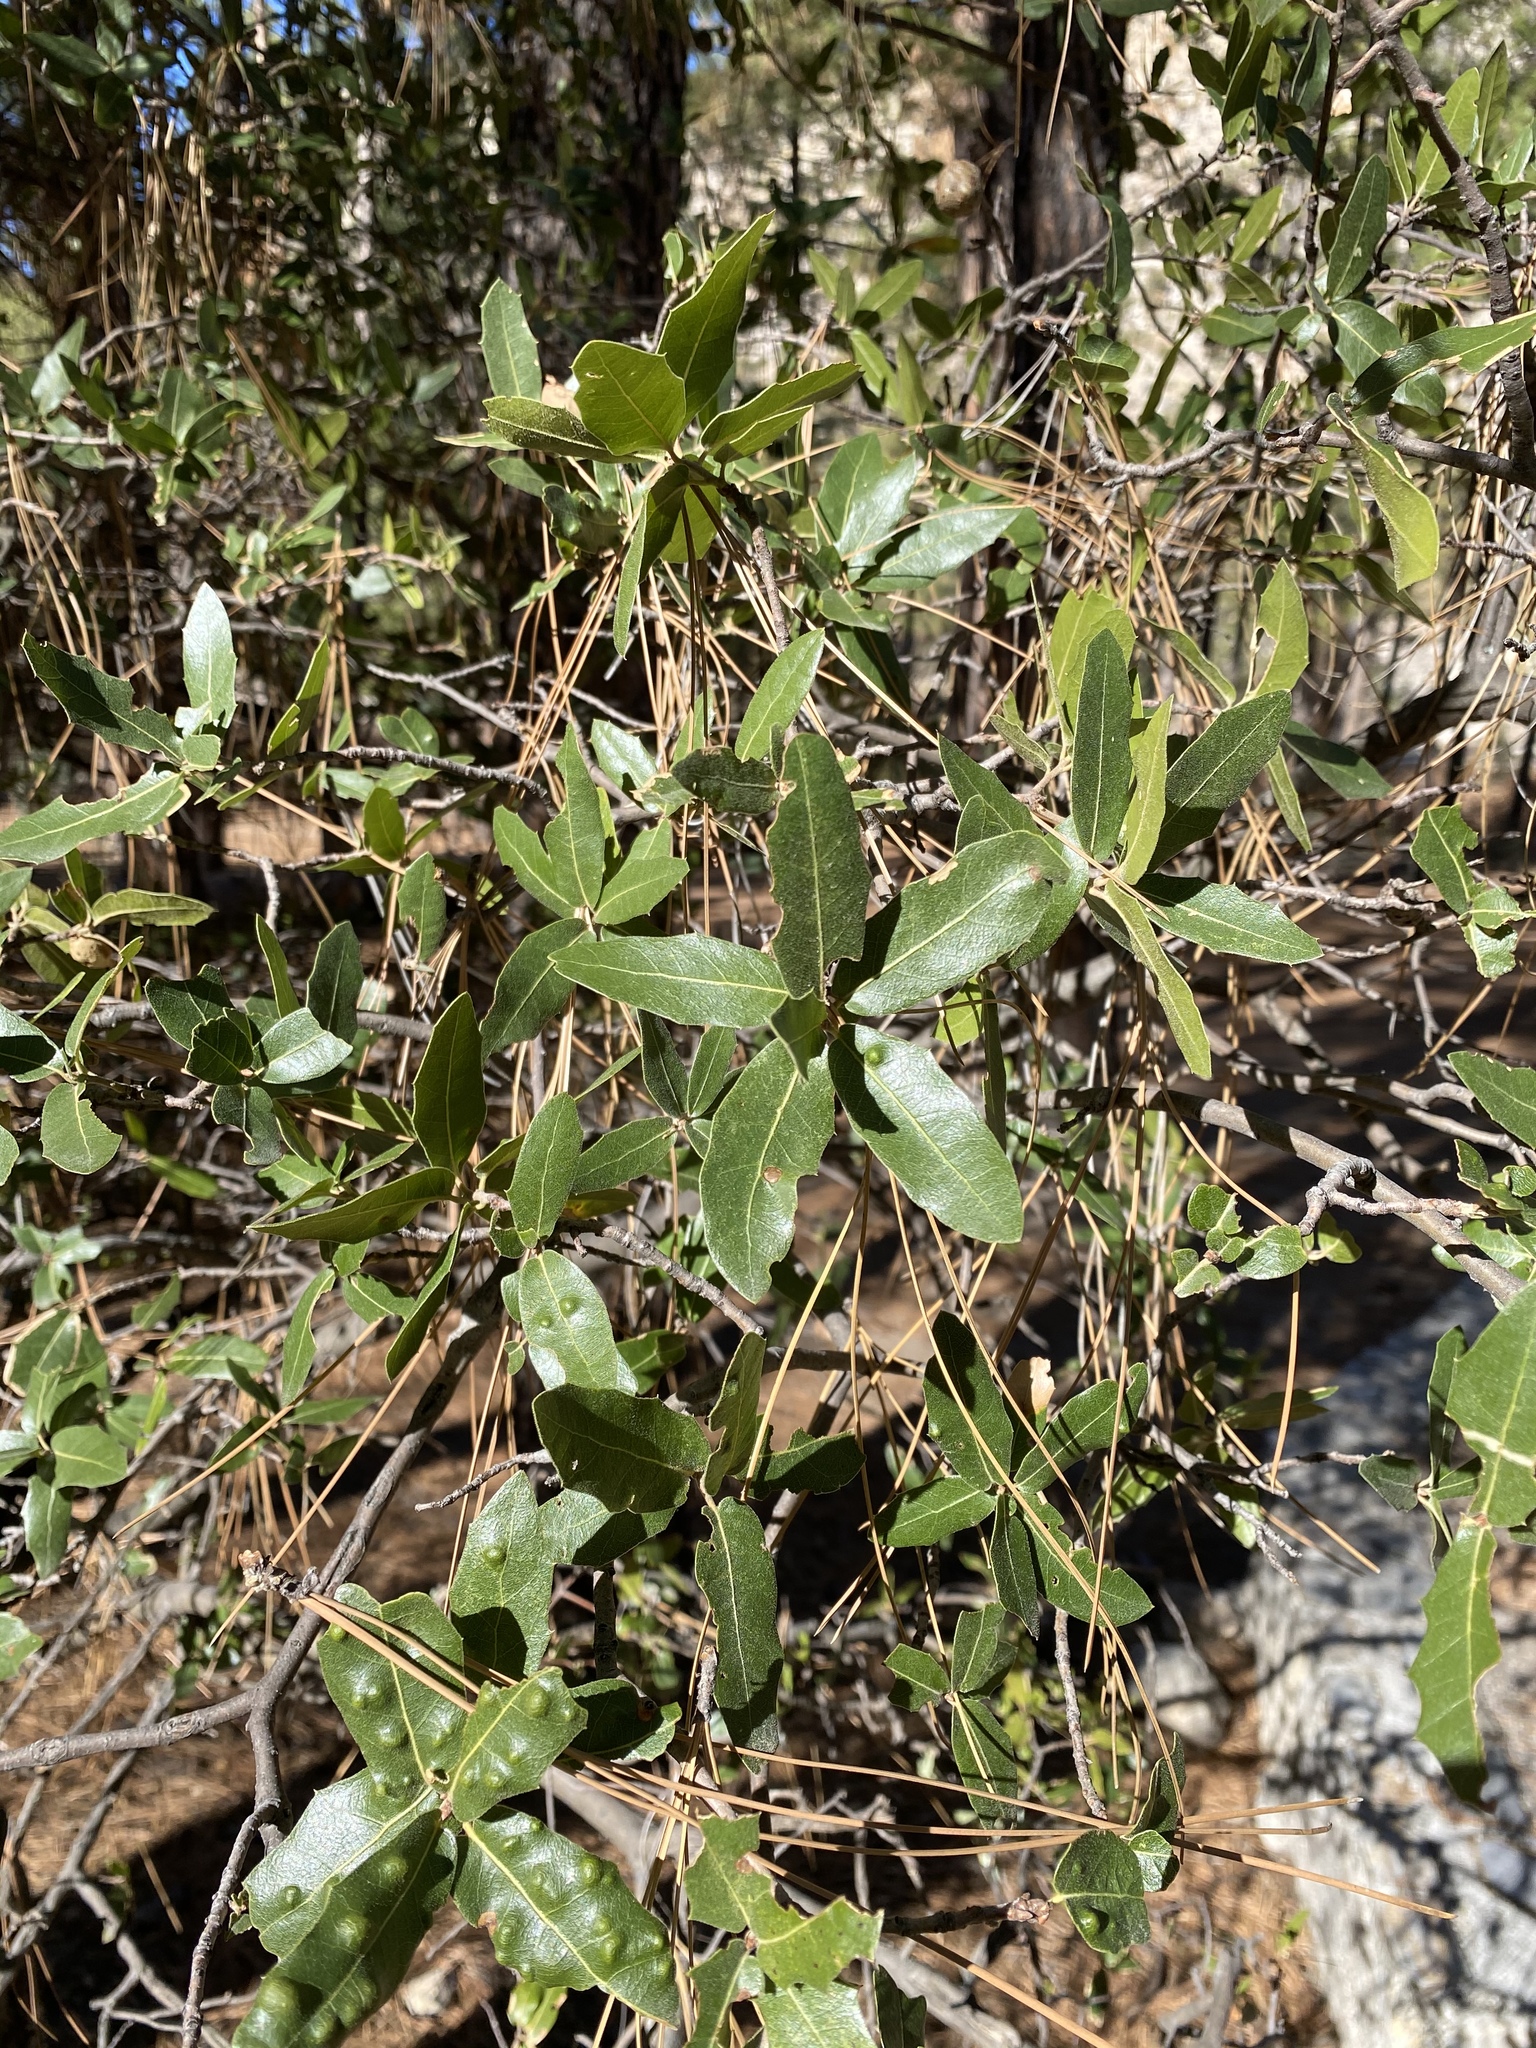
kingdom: Plantae
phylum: Tracheophyta
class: Magnoliopsida
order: Fagales
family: Fagaceae
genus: Quercus
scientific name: Quercus emoryi
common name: Emory oak
